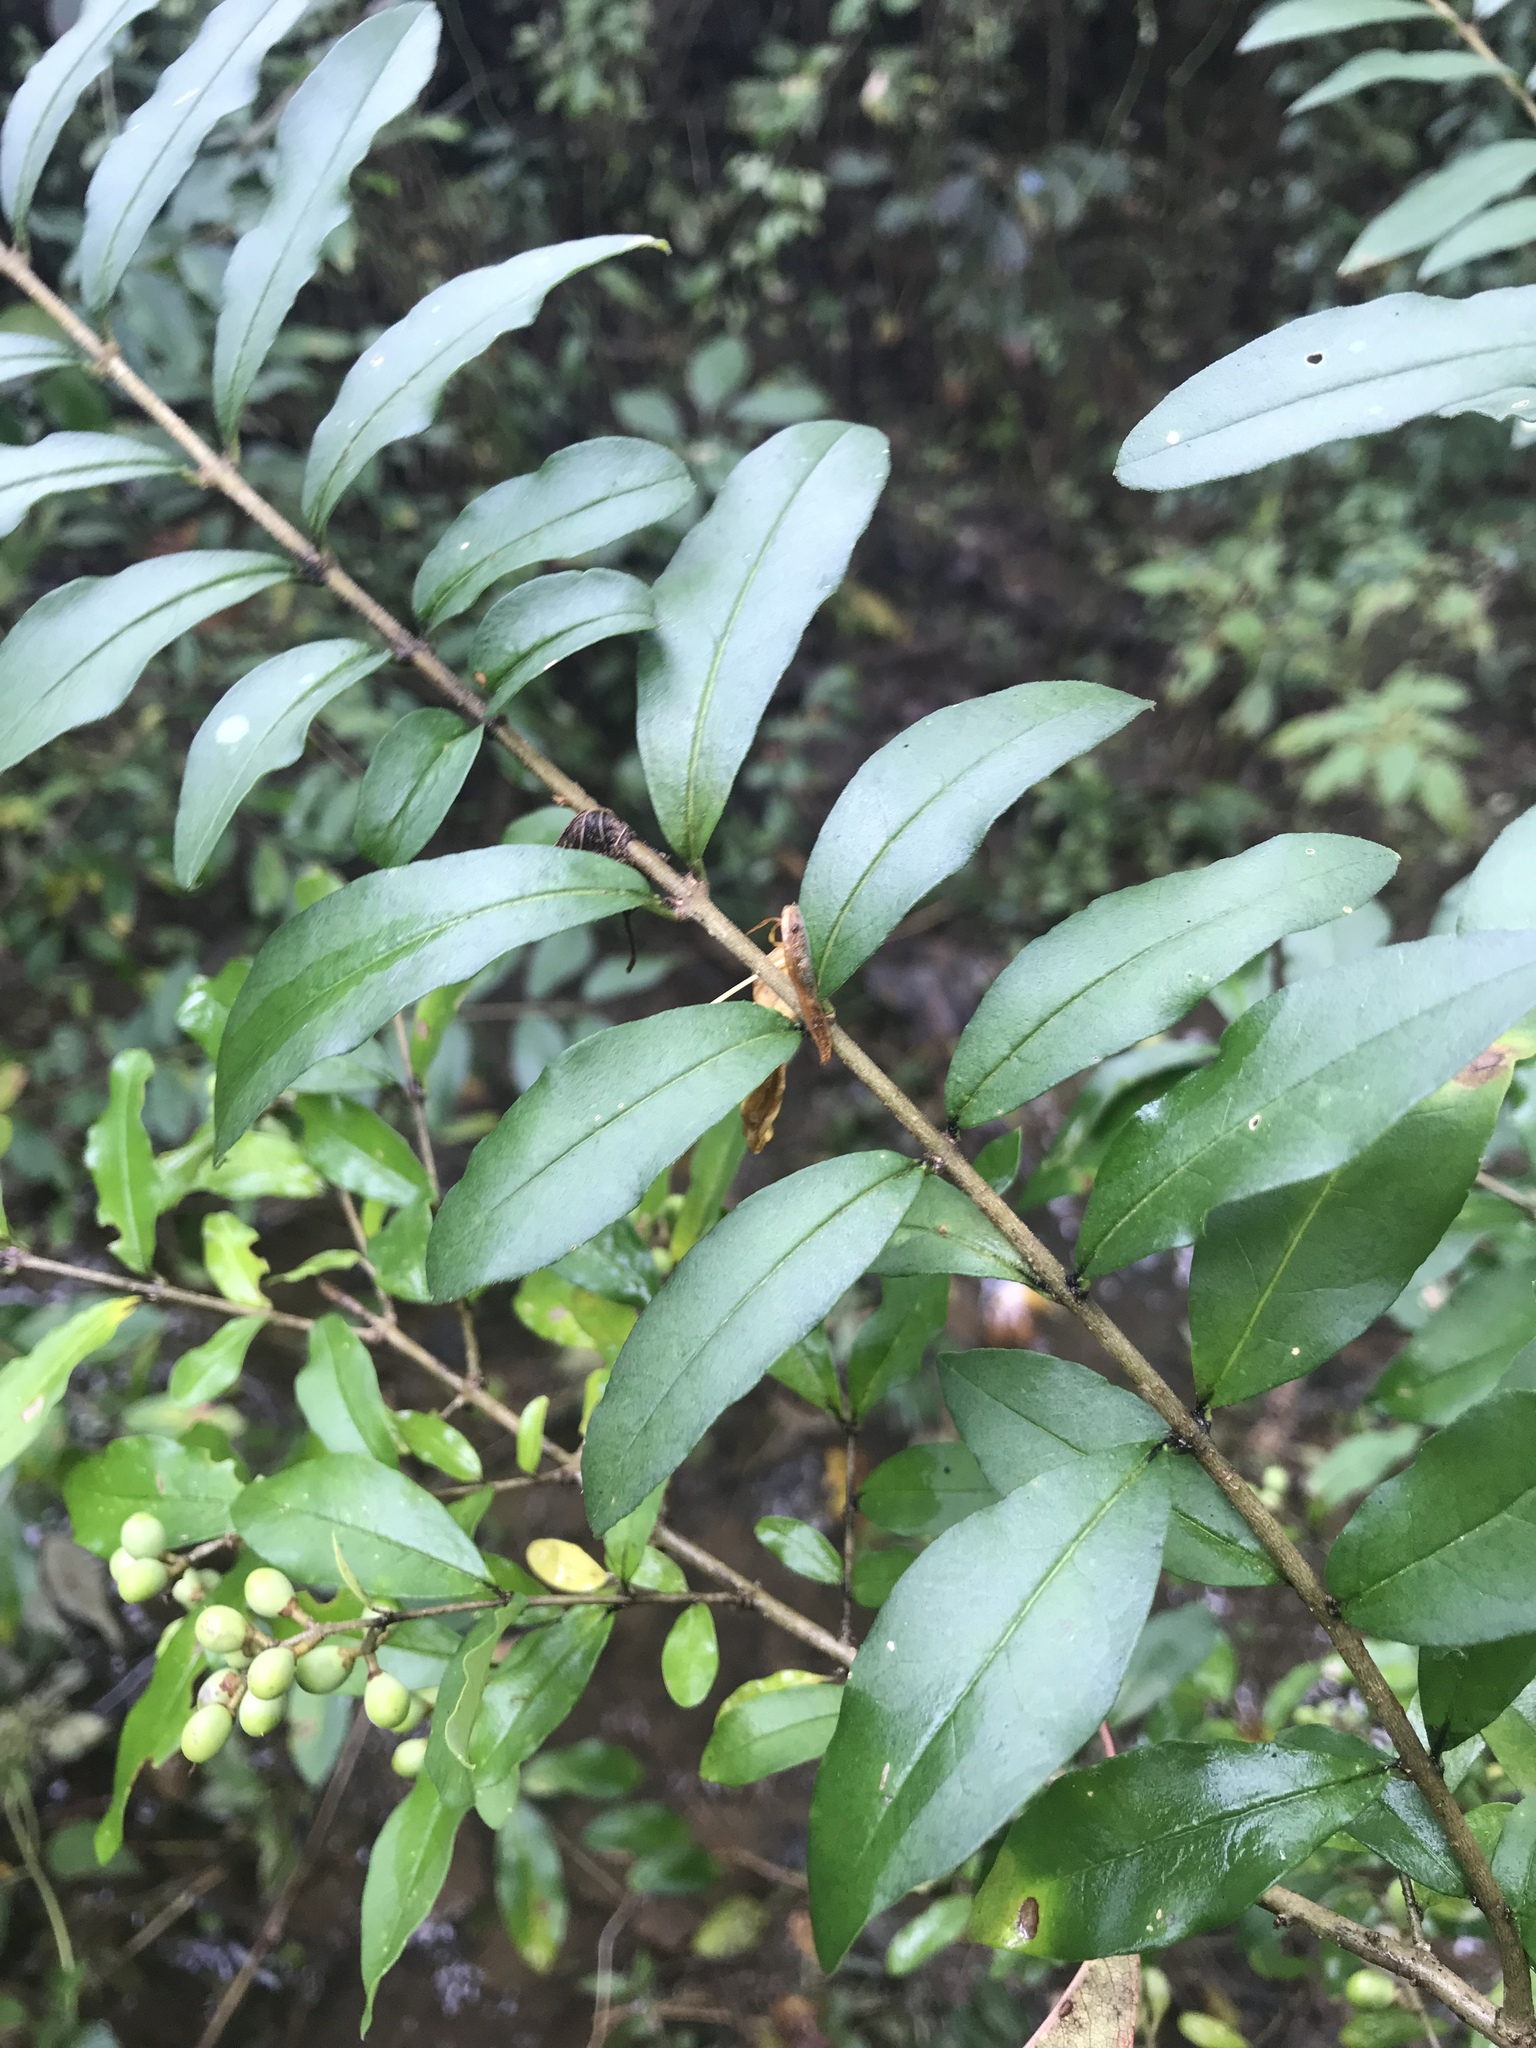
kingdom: Plantae
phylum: Tracheophyta
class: Magnoliopsida
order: Lamiales
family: Oleaceae
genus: Ligustrum
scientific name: Ligustrum vulgare
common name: Wild privet
